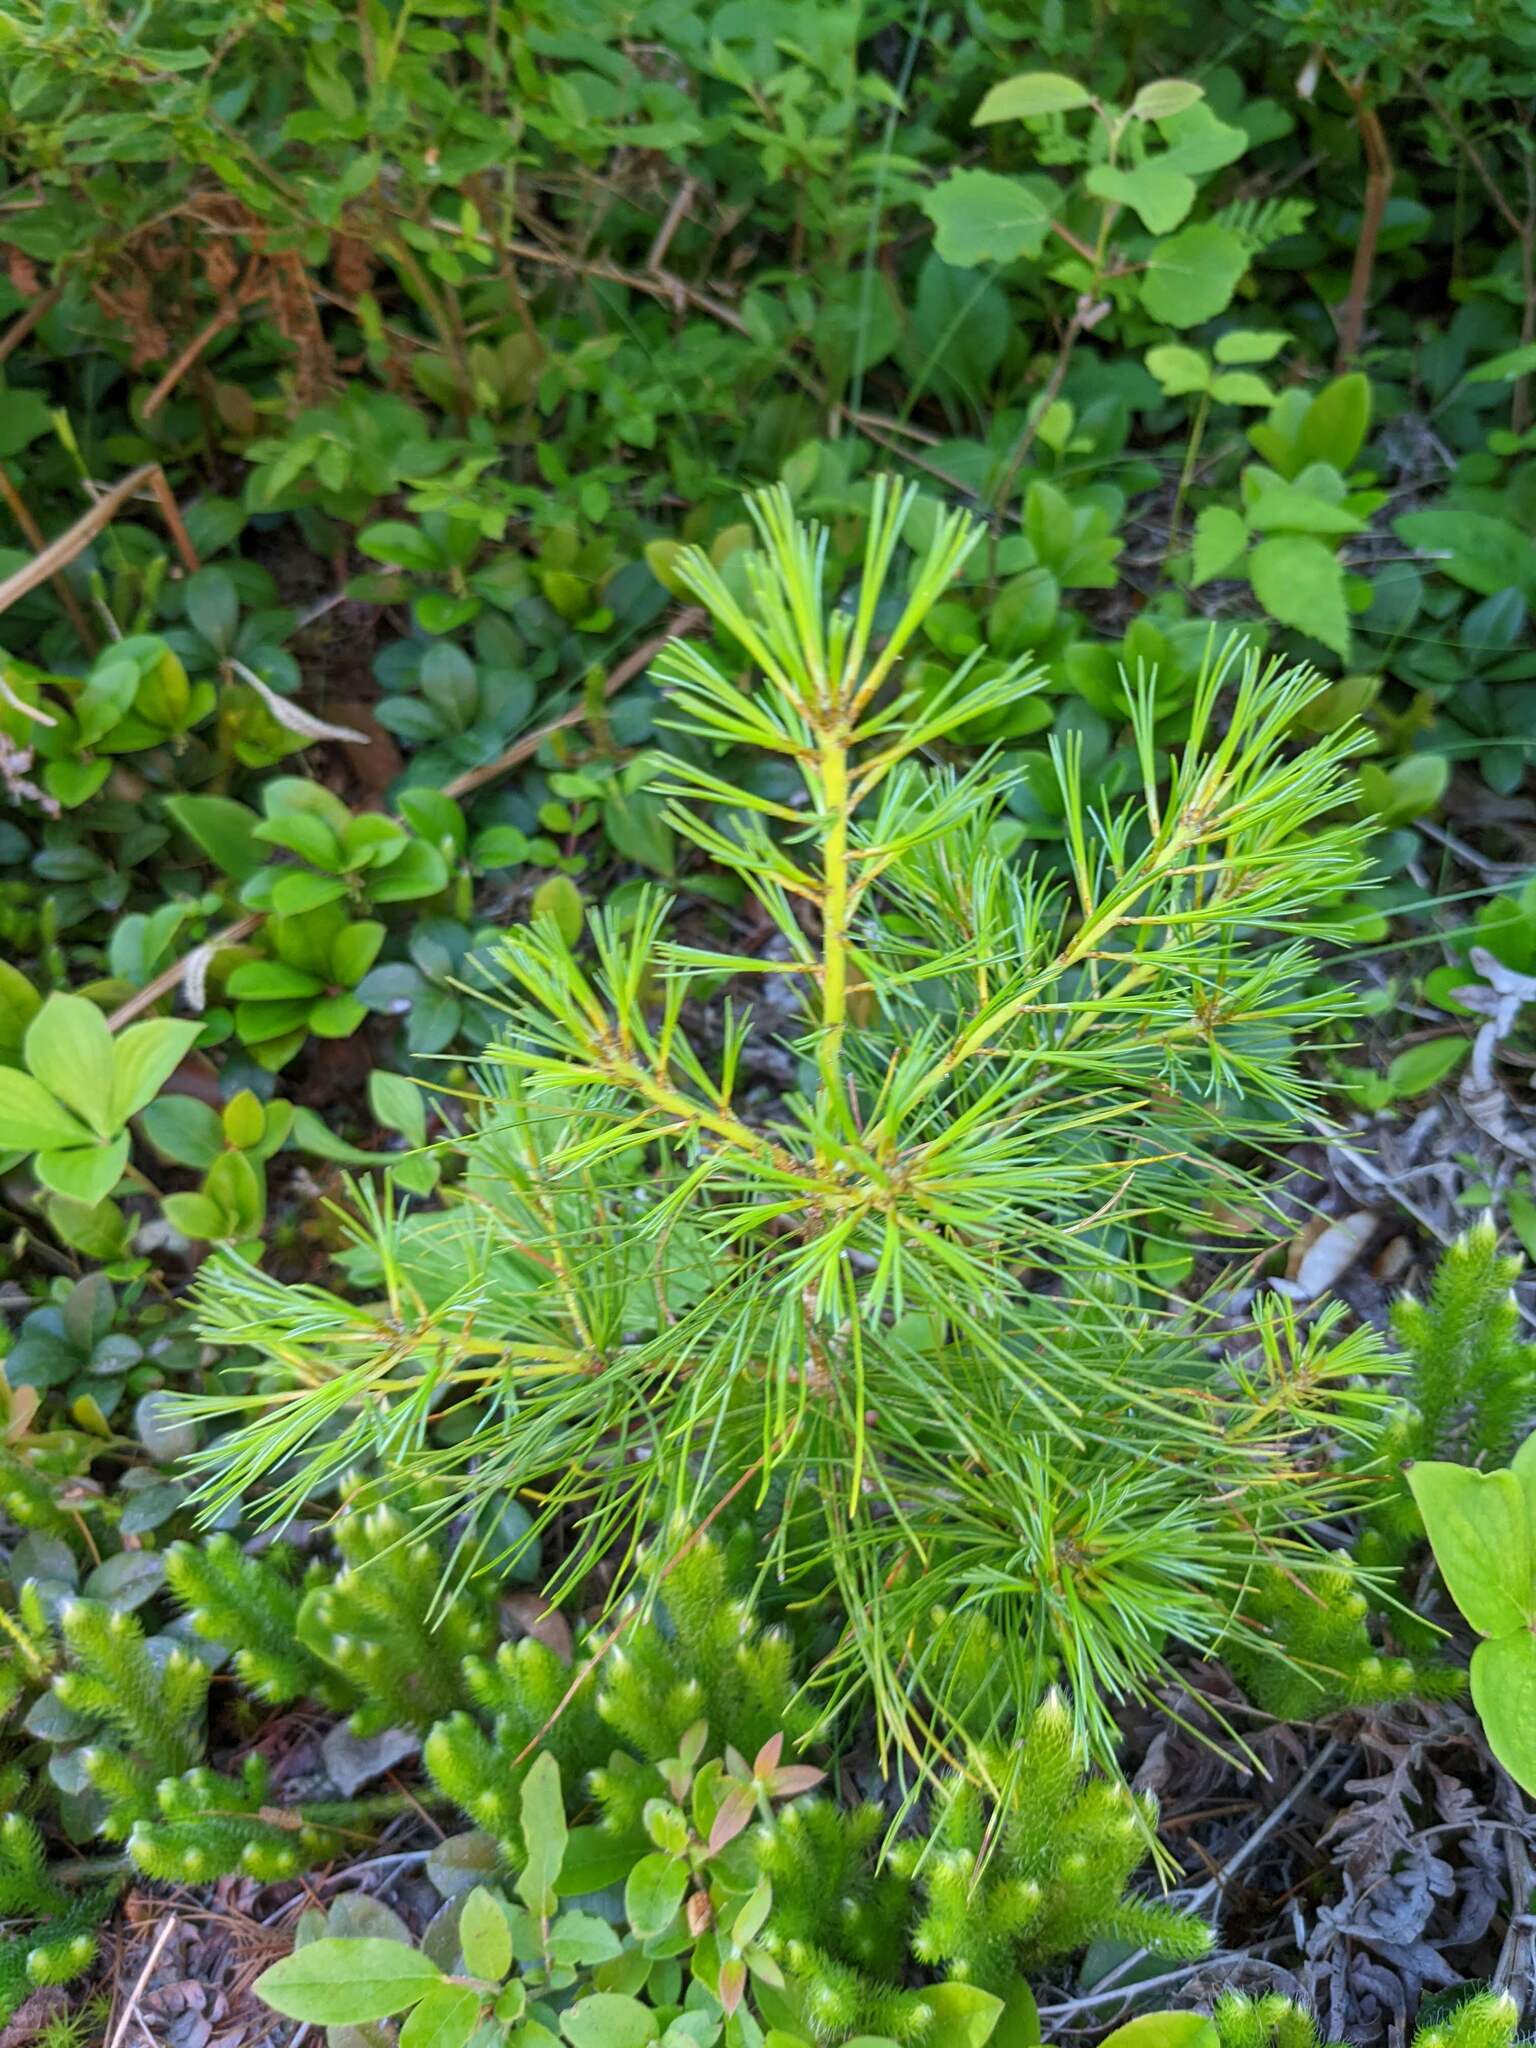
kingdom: Plantae
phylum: Tracheophyta
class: Pinopsida
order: Pinales
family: Pinaceae
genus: Pinus
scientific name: Pinus strobus
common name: Weymouth pine
